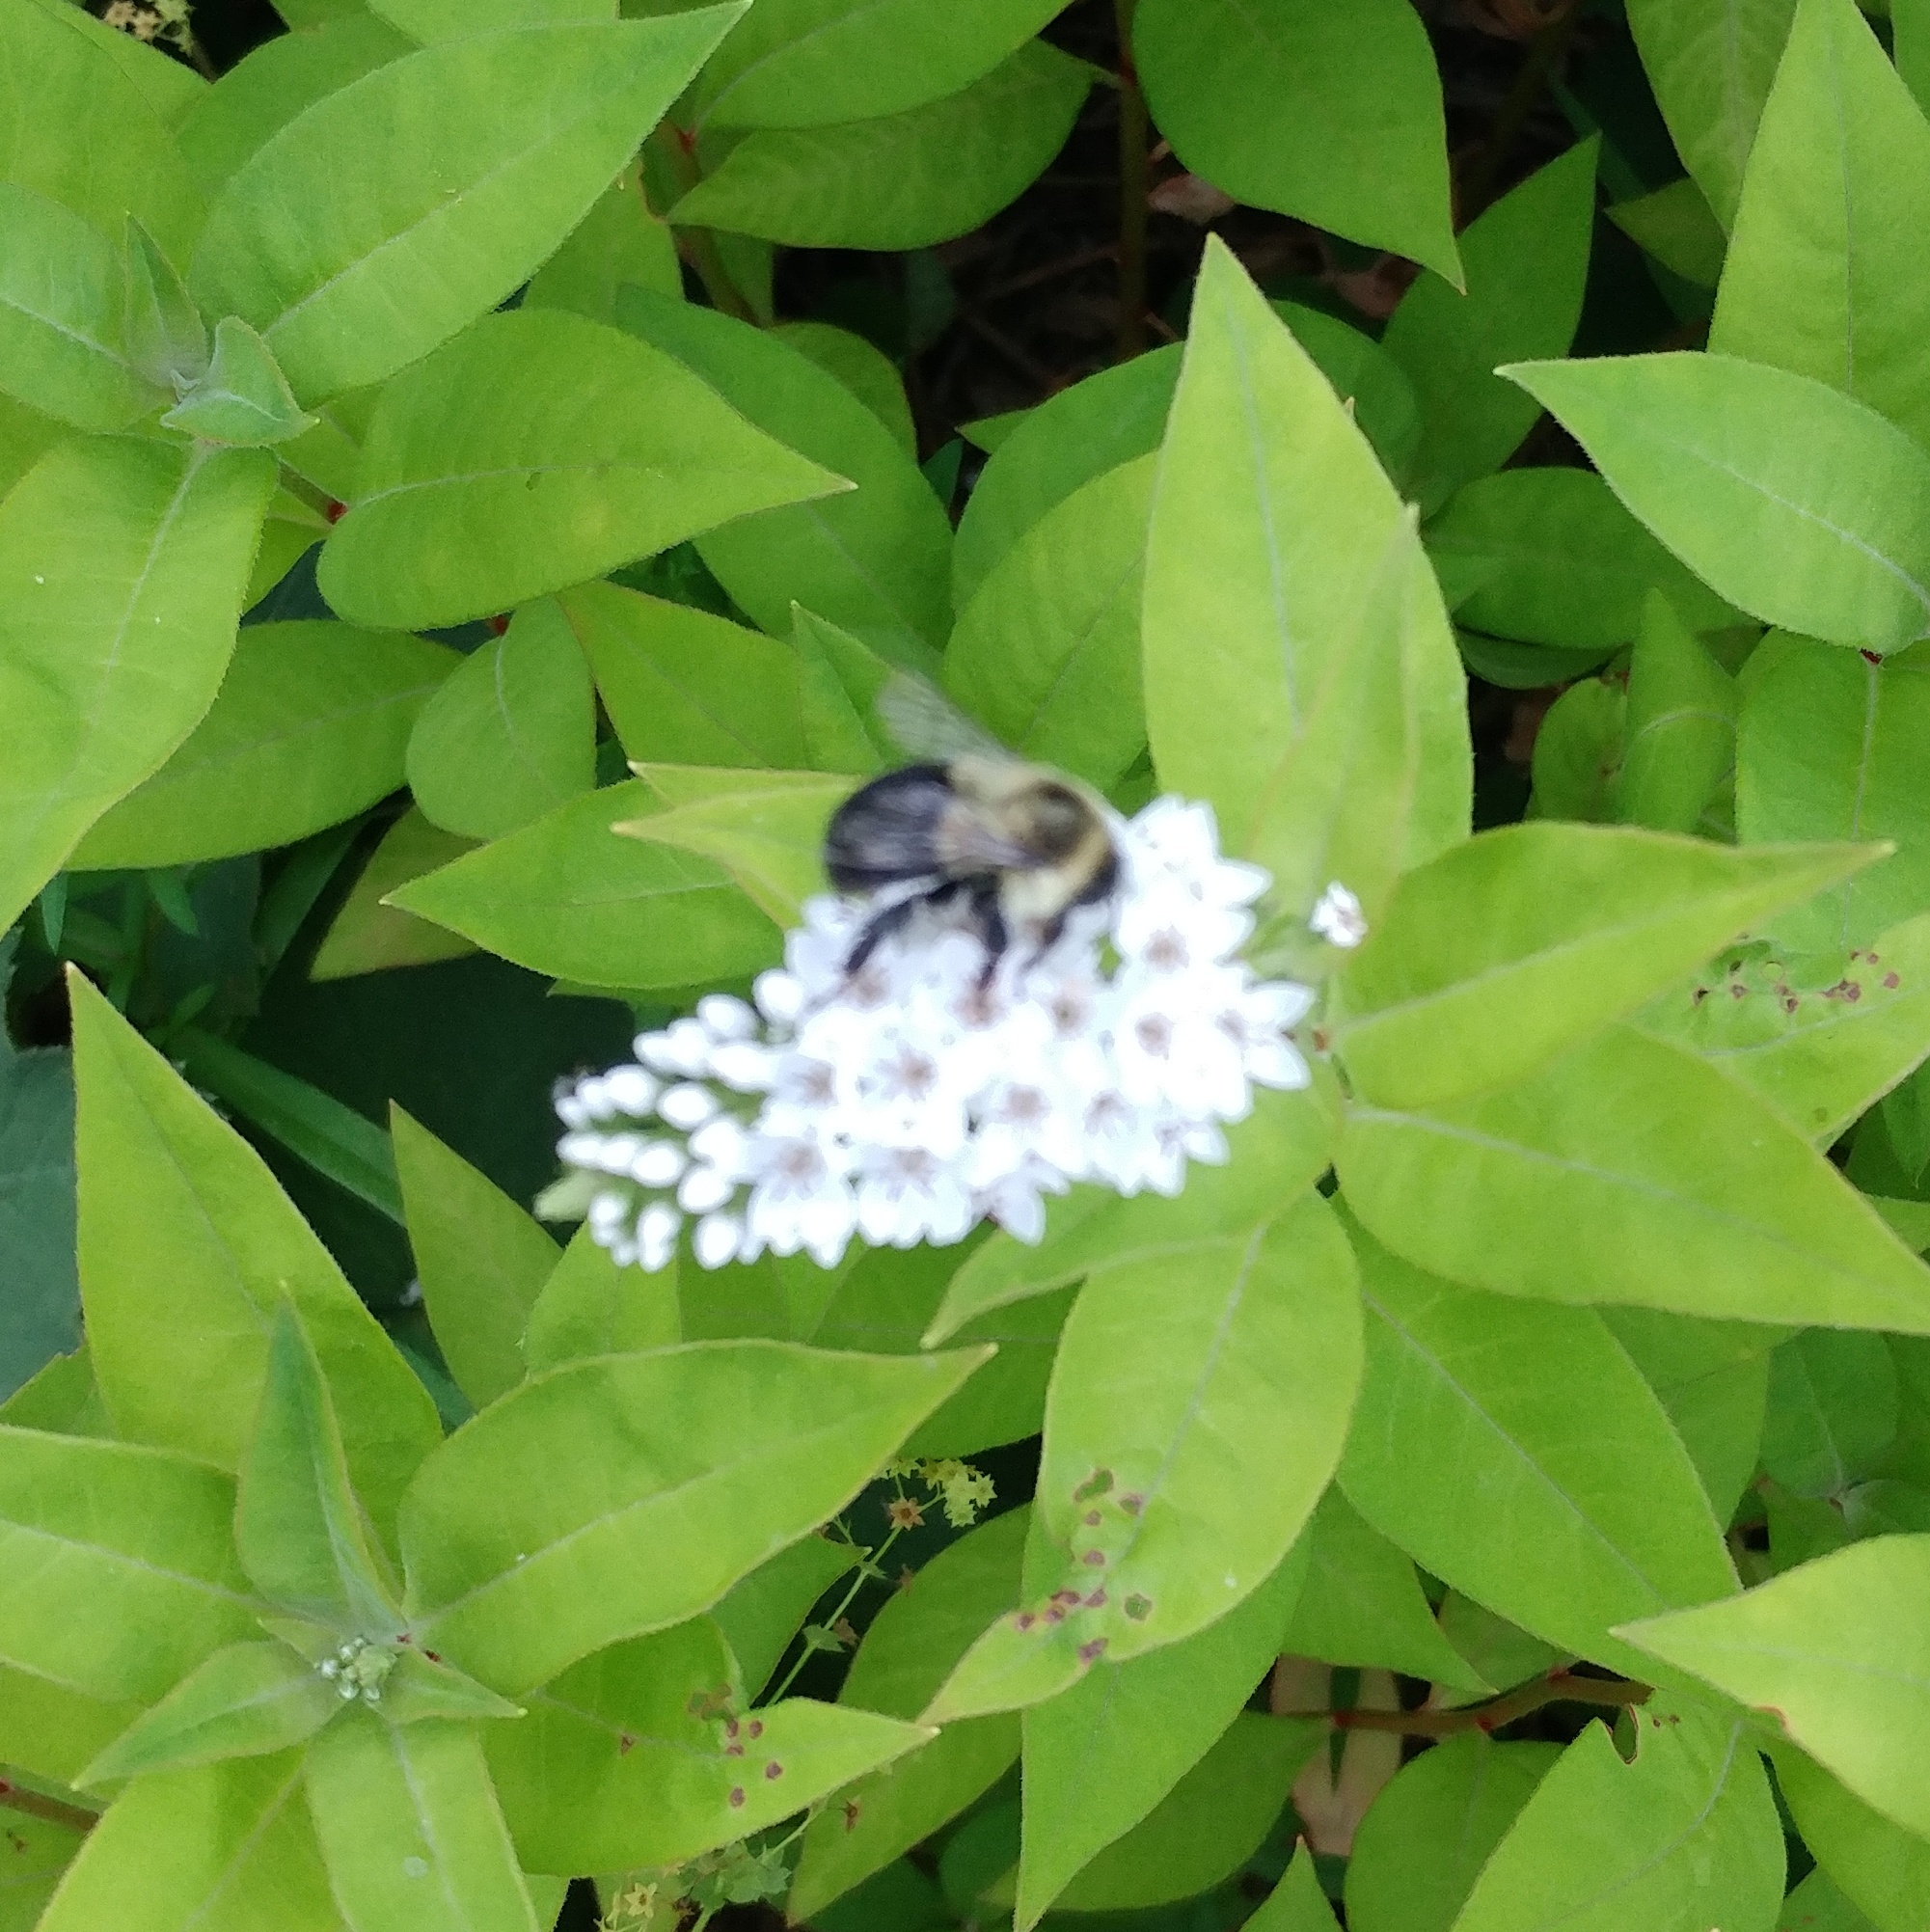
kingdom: Animalia
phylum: Arthropoda
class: Insecta
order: Hymenoptera
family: Apidae
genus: Bombus
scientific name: Bombus impatiens
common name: Common eastern bumble bee
